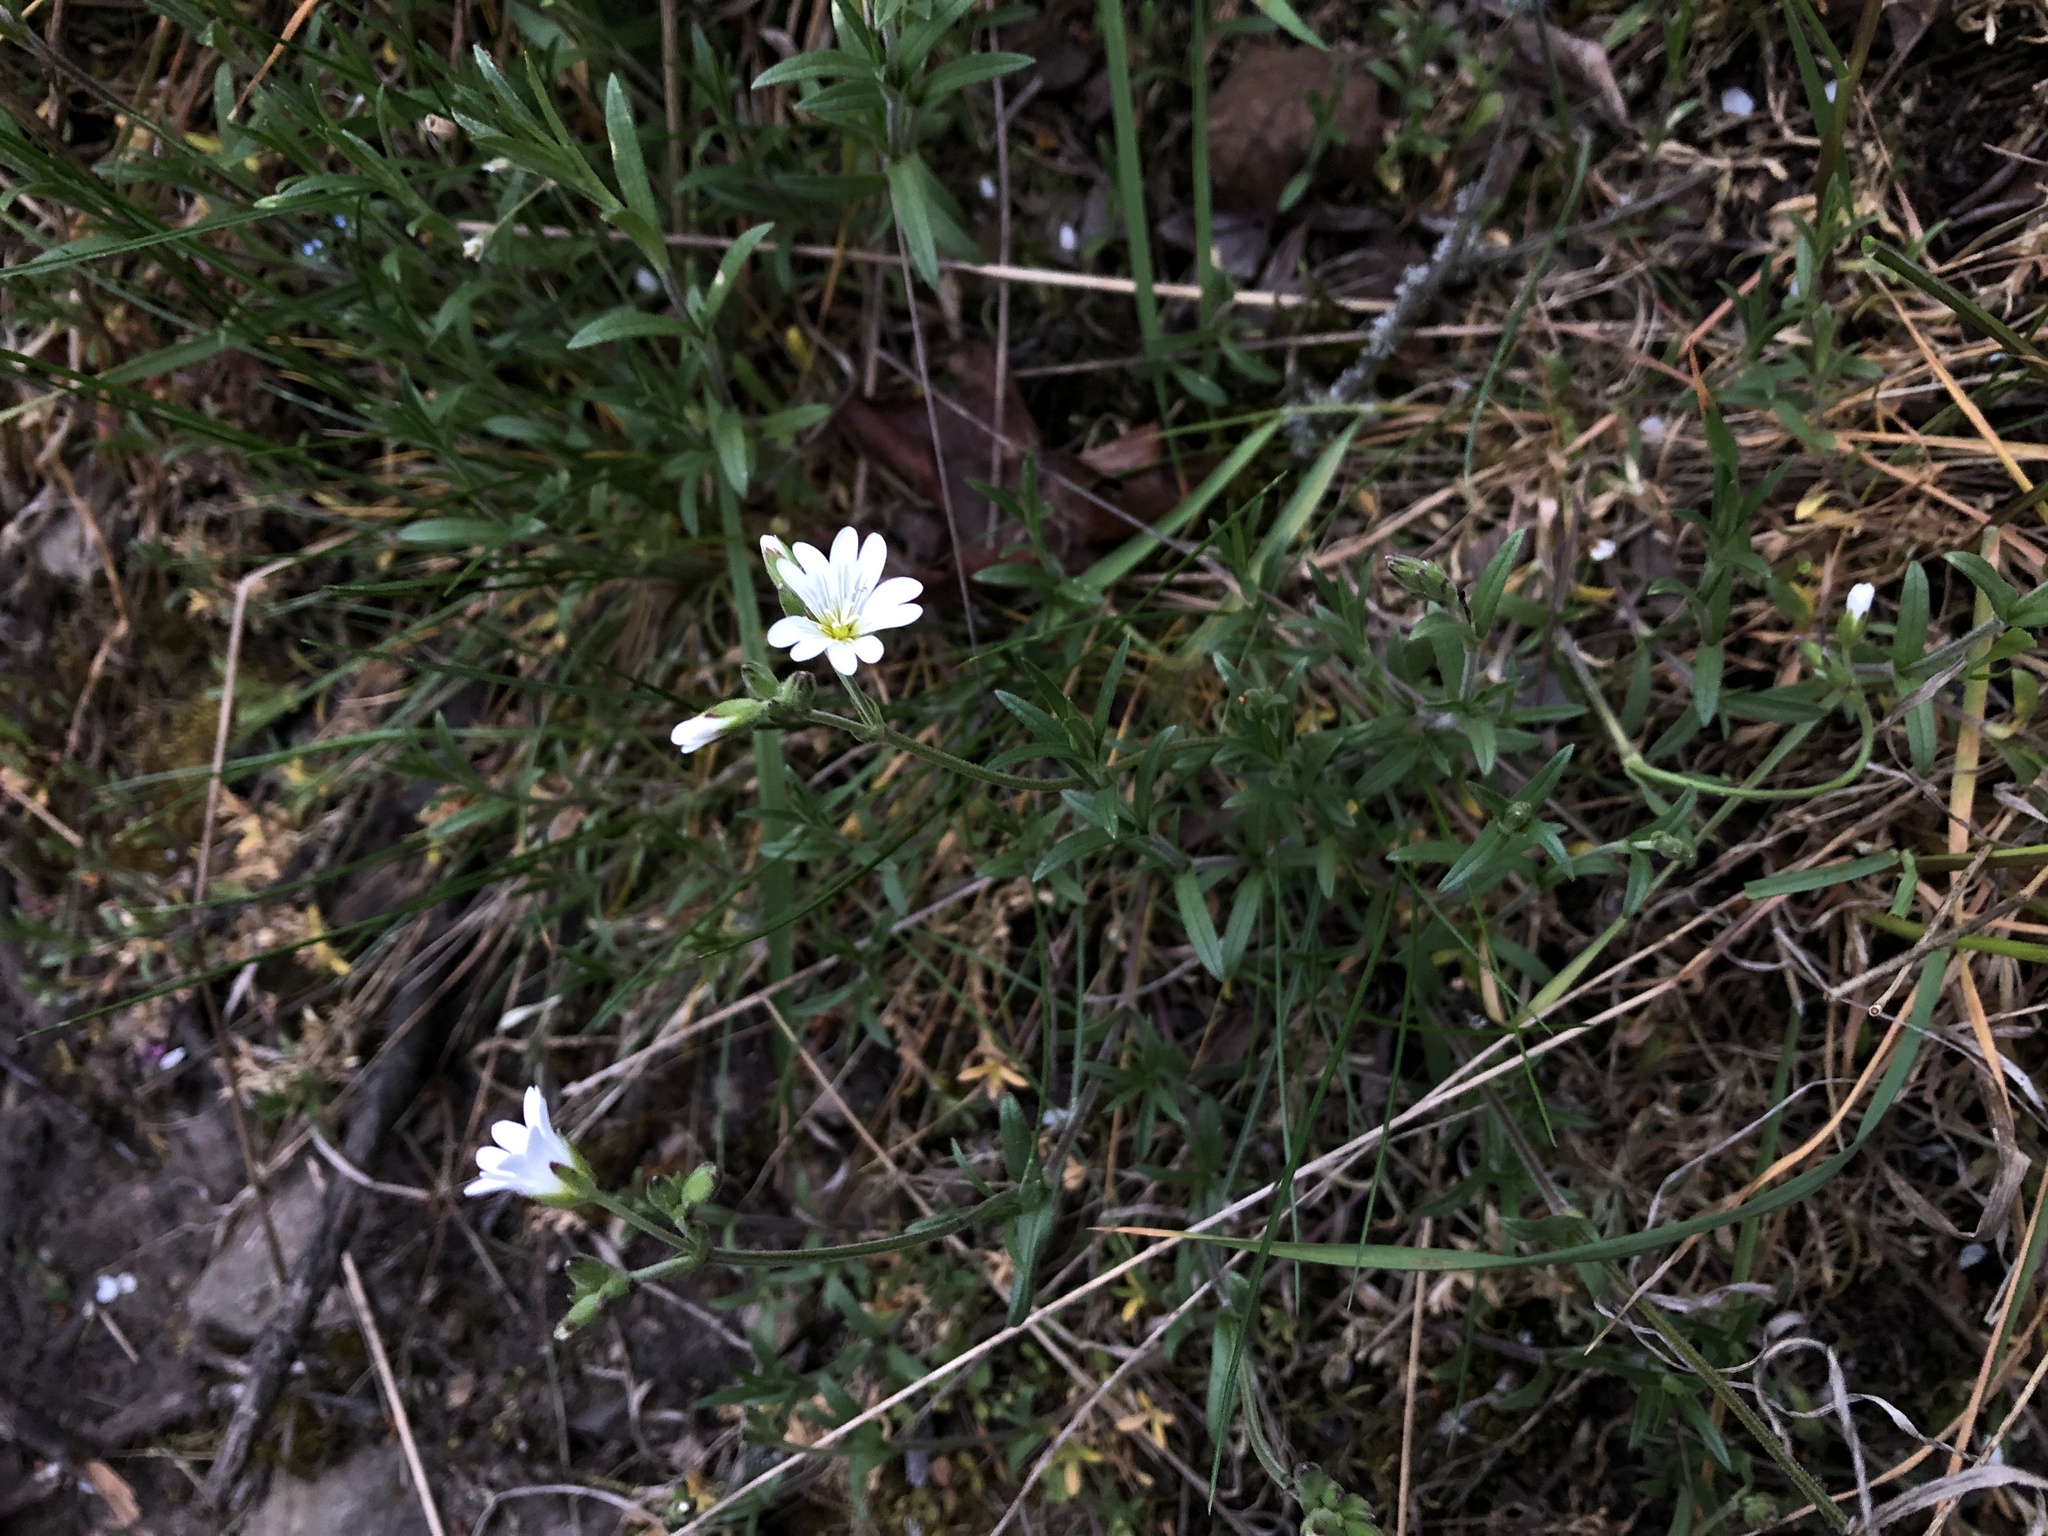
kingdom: Plantae
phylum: Tracheophyta
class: Magnoliopsida
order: Caryophyllales
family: Caryophyllaceae
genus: Cerastium
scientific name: Cerastium arvense
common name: Field mouse-ear
